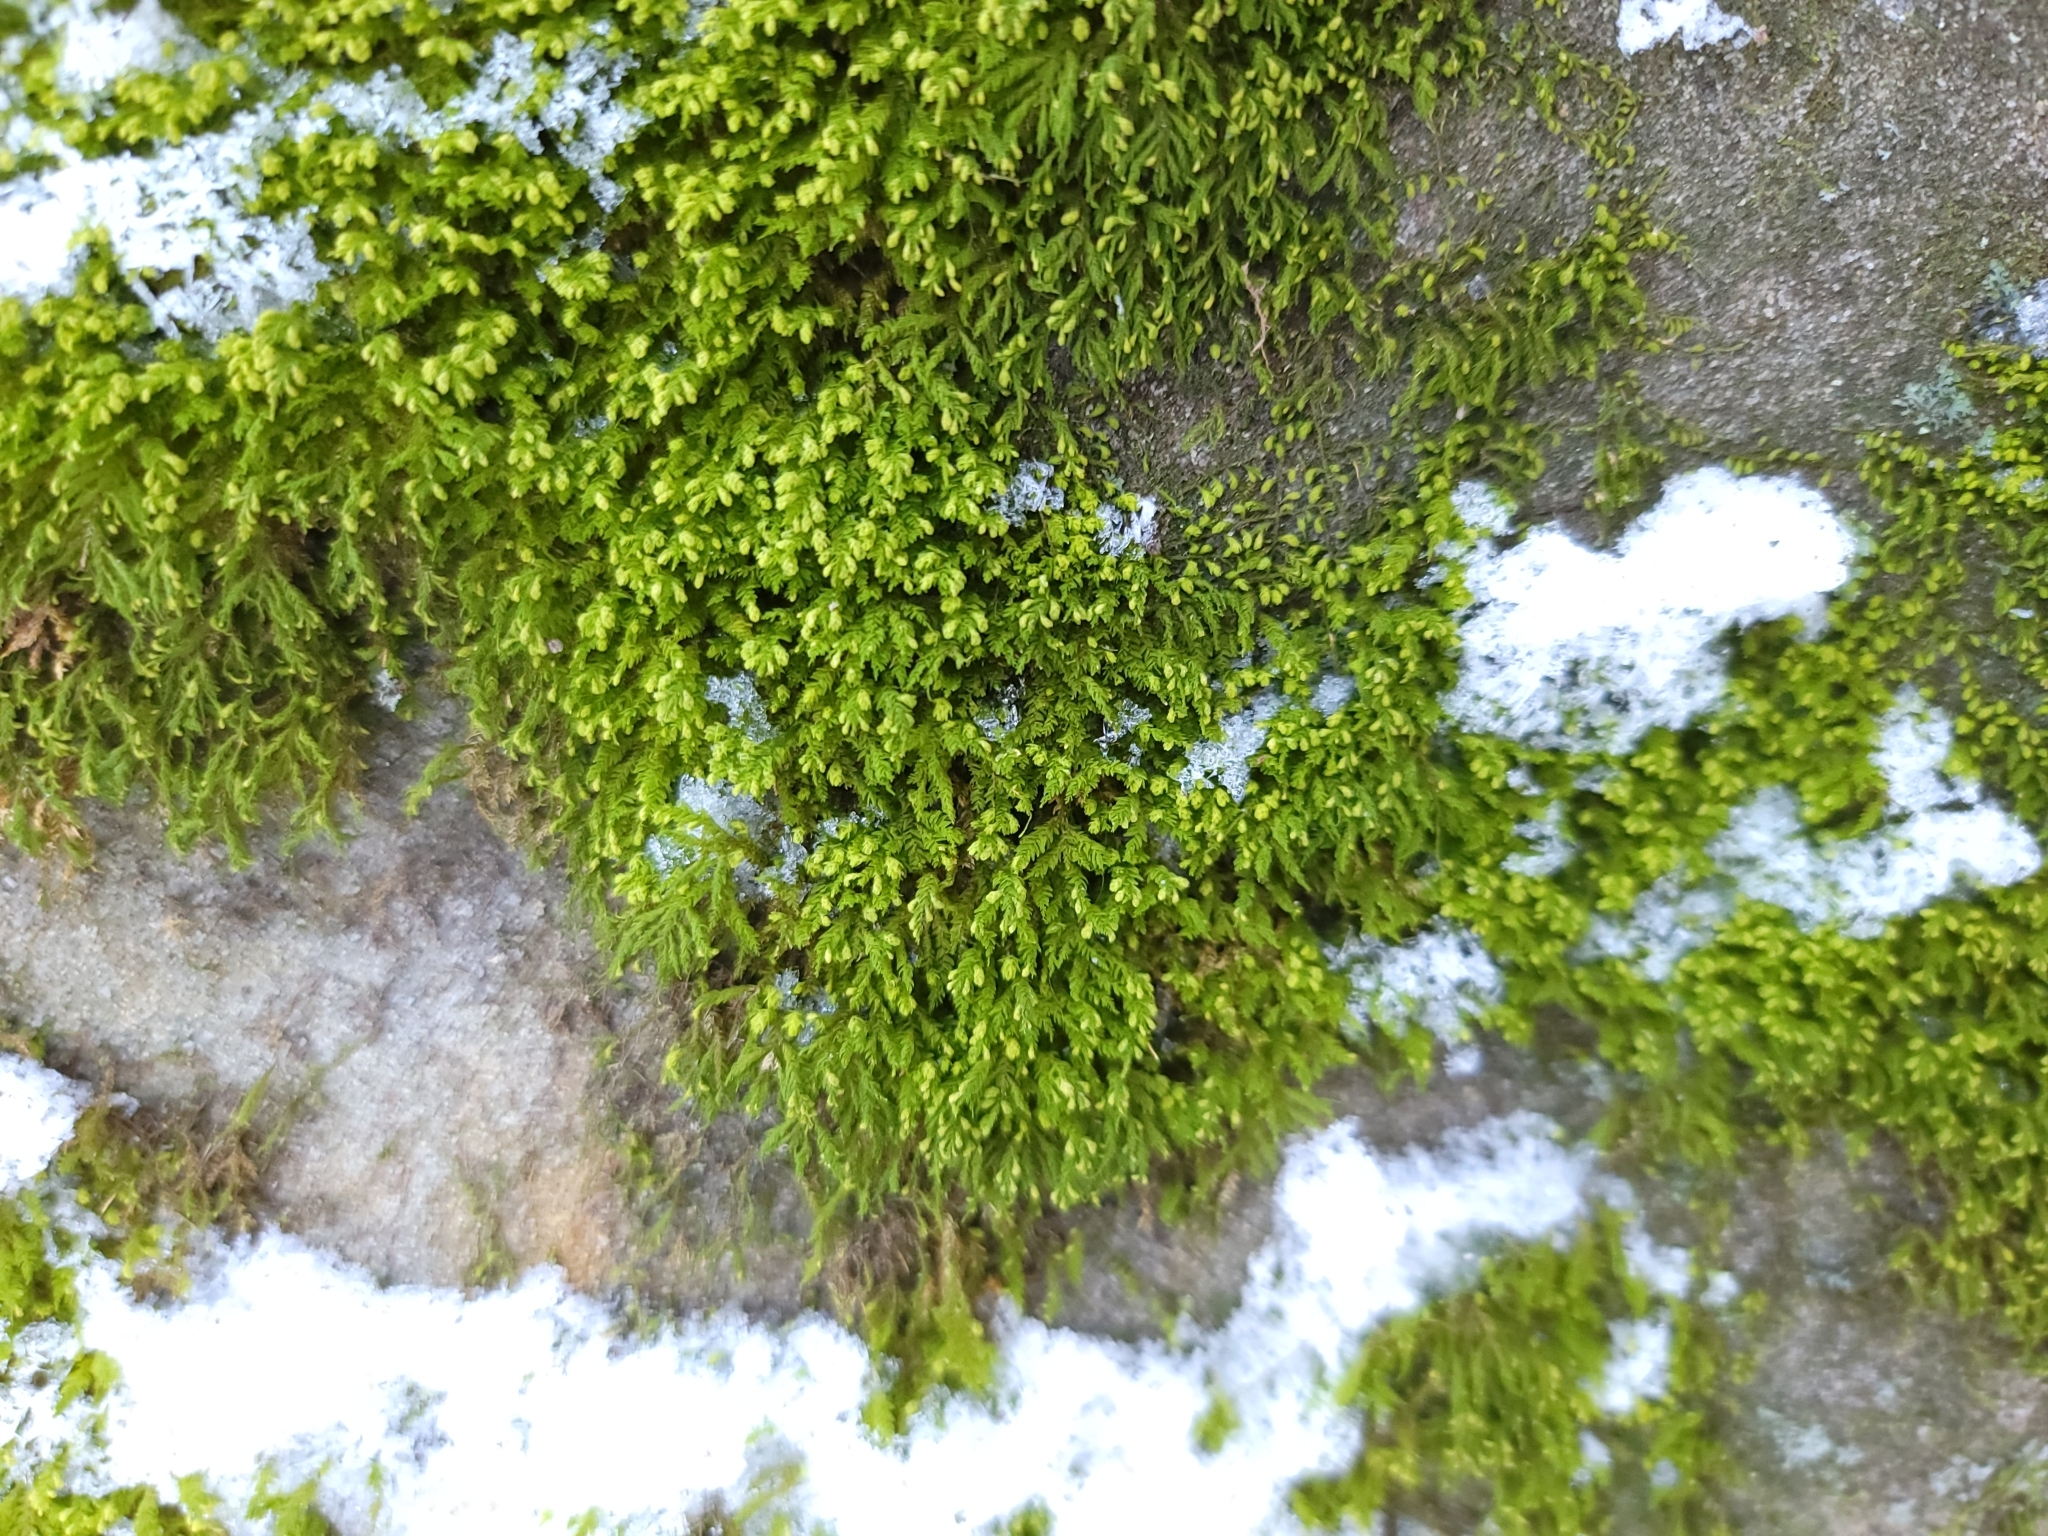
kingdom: Plantae
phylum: Bryophyta
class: Bryopsida
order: Hypnales
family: Neckeraceae
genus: Pseudanomodon
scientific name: Pseudanomodon attenuatus
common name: Tree-skirt moss
